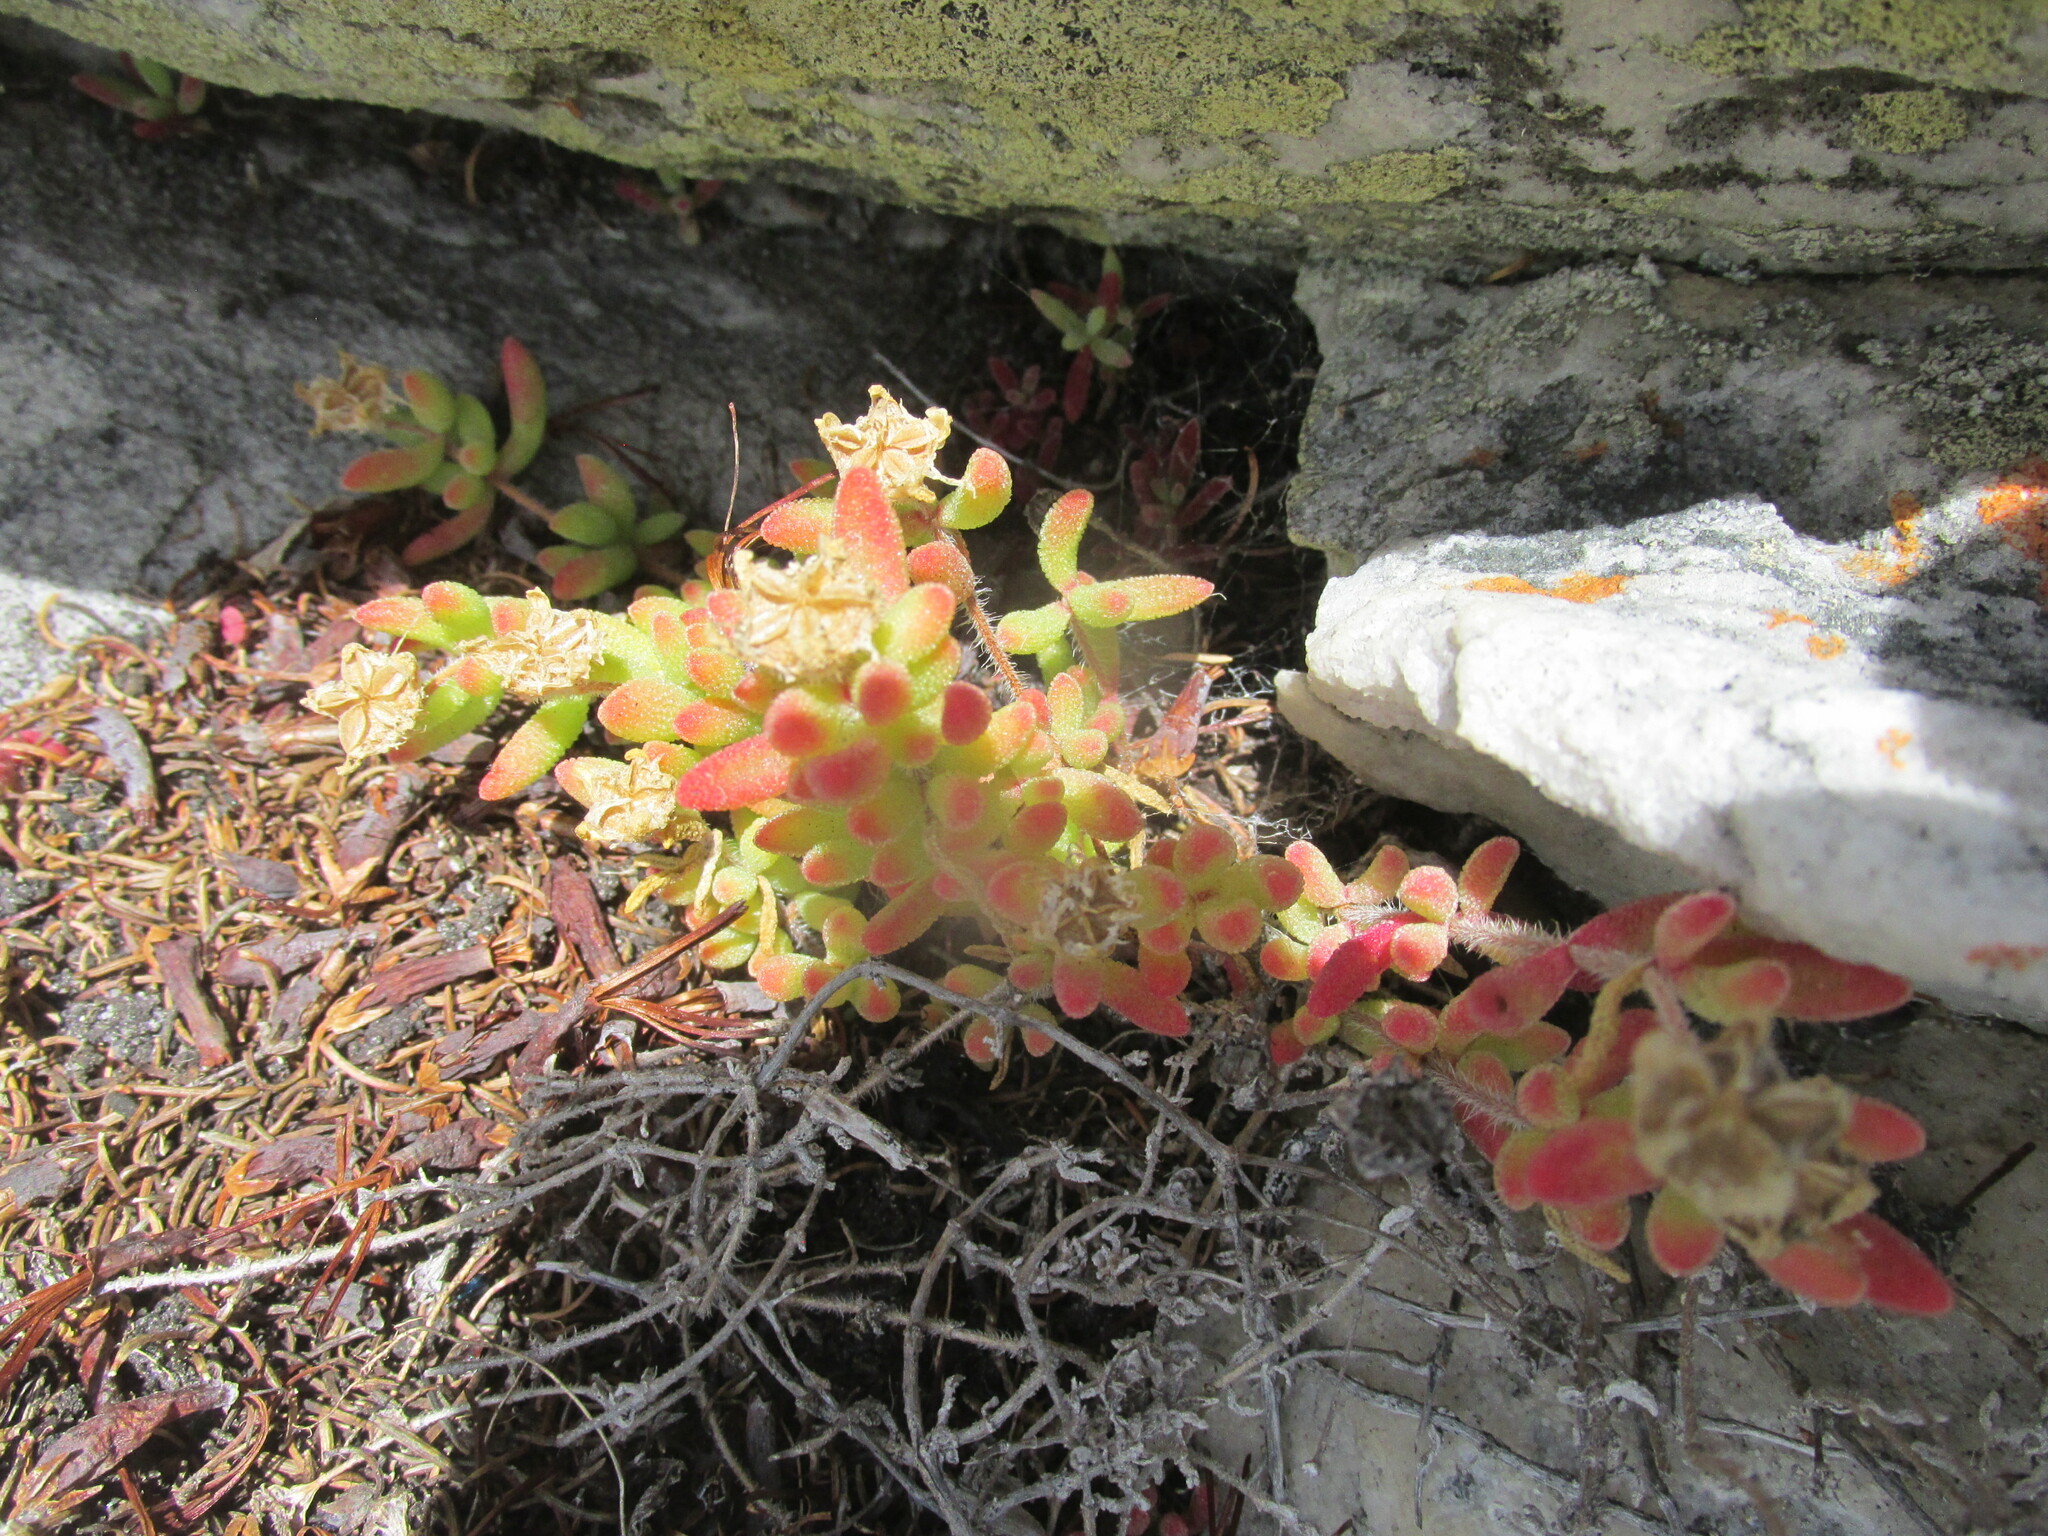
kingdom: Plantae
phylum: Tracheophyta
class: Magnoliopsida
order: Caryophyllales
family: Aizoaceae
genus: Drosanthemum
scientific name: Drosanthemum stokoei
